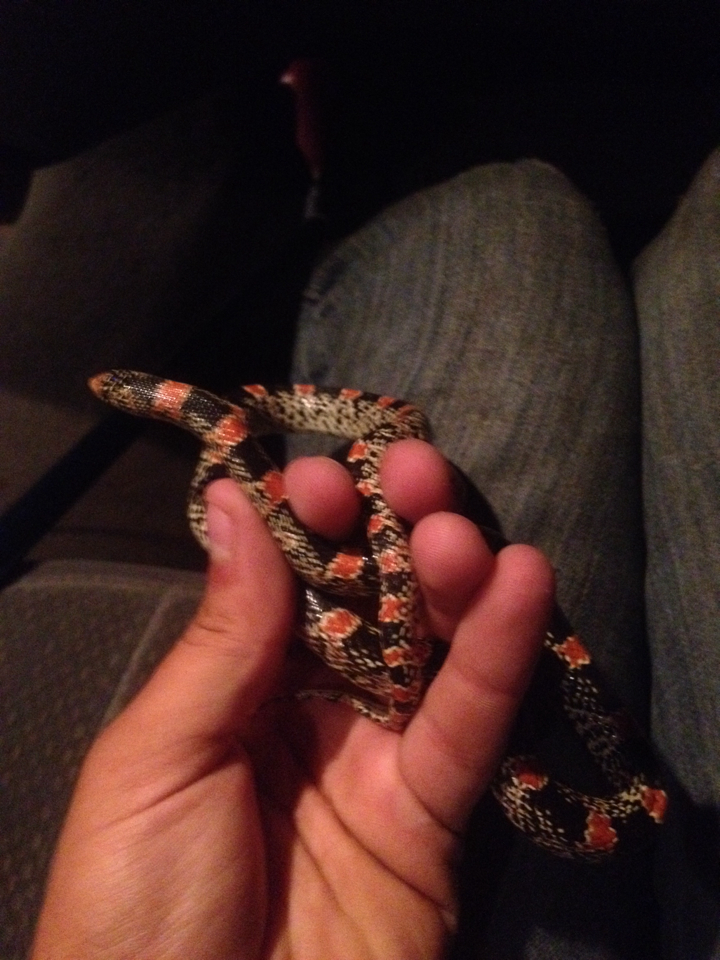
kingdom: Animalia
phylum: Chordata
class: Squamata
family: Colubridae
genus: Rhinocheilus
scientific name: Rhinocheilus lecontei
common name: Longnose snake
